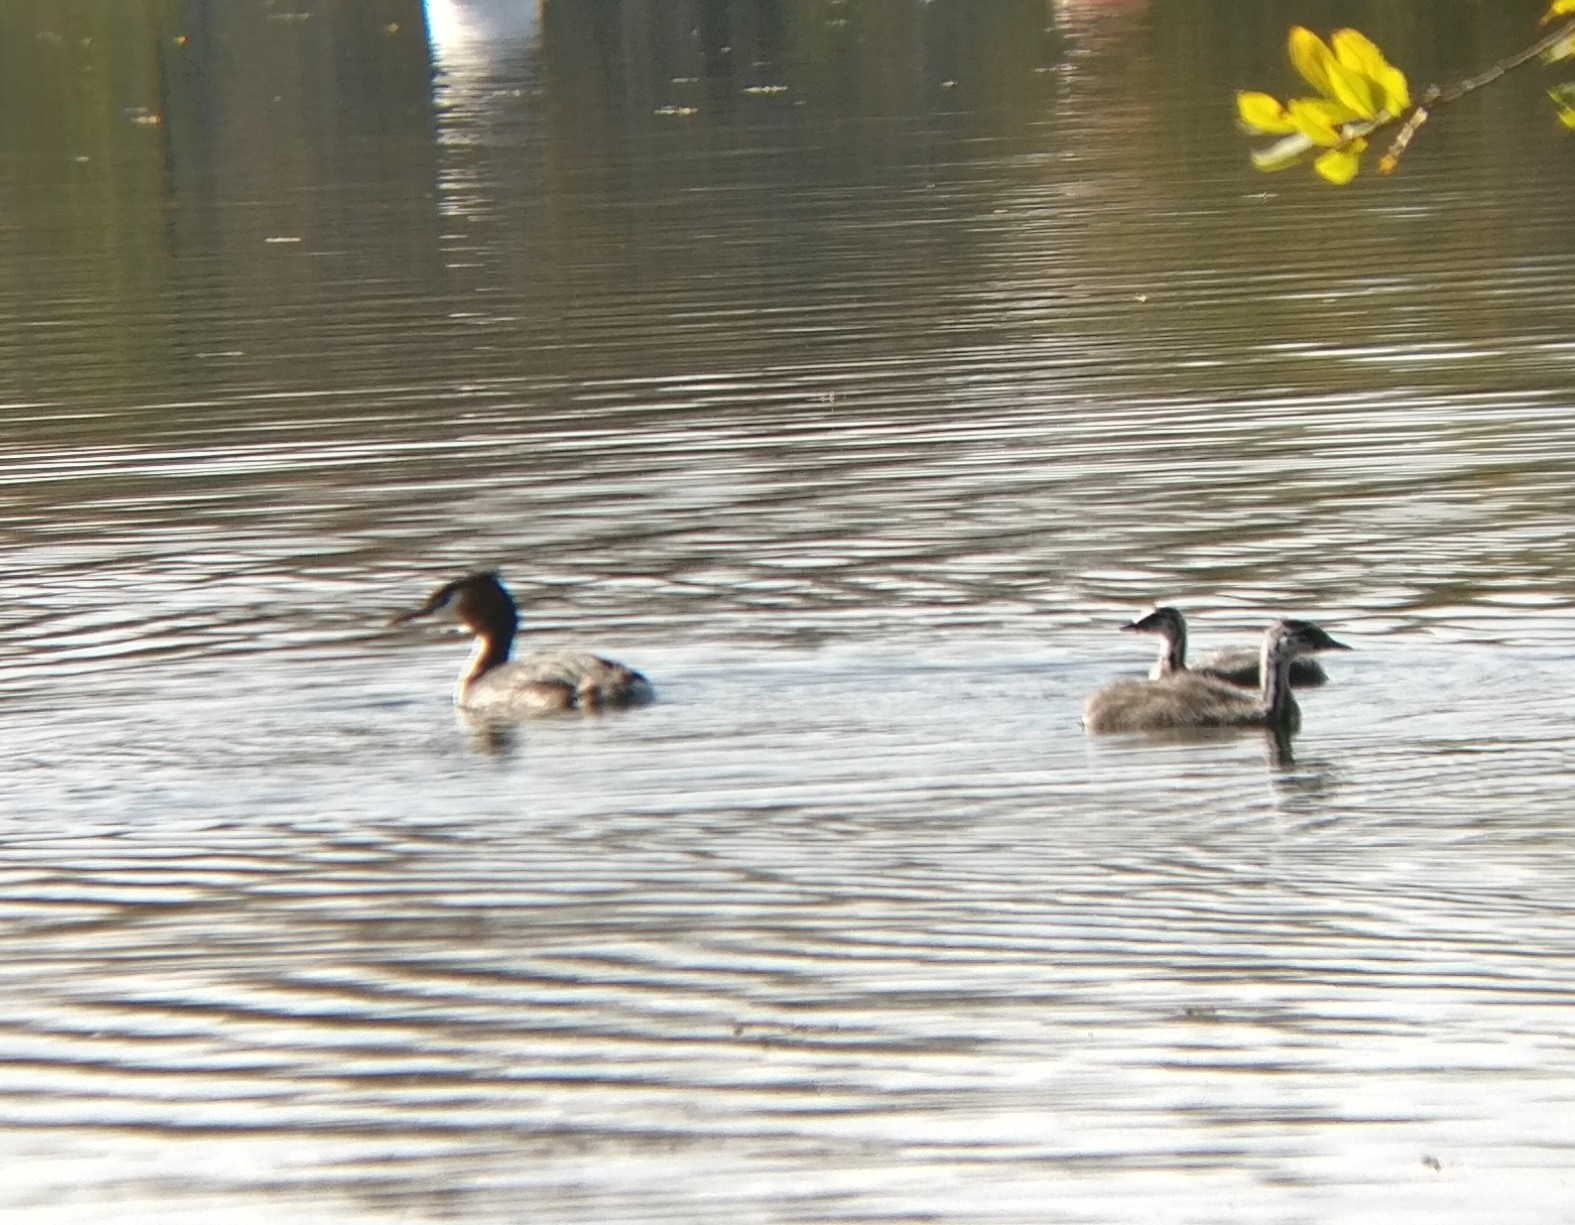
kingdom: Animalia
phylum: Chordata
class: Aves
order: Podicipediformes
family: Podicipedidae
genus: Podiceps
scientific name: Podiceps cristatus
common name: Great crested grebe
